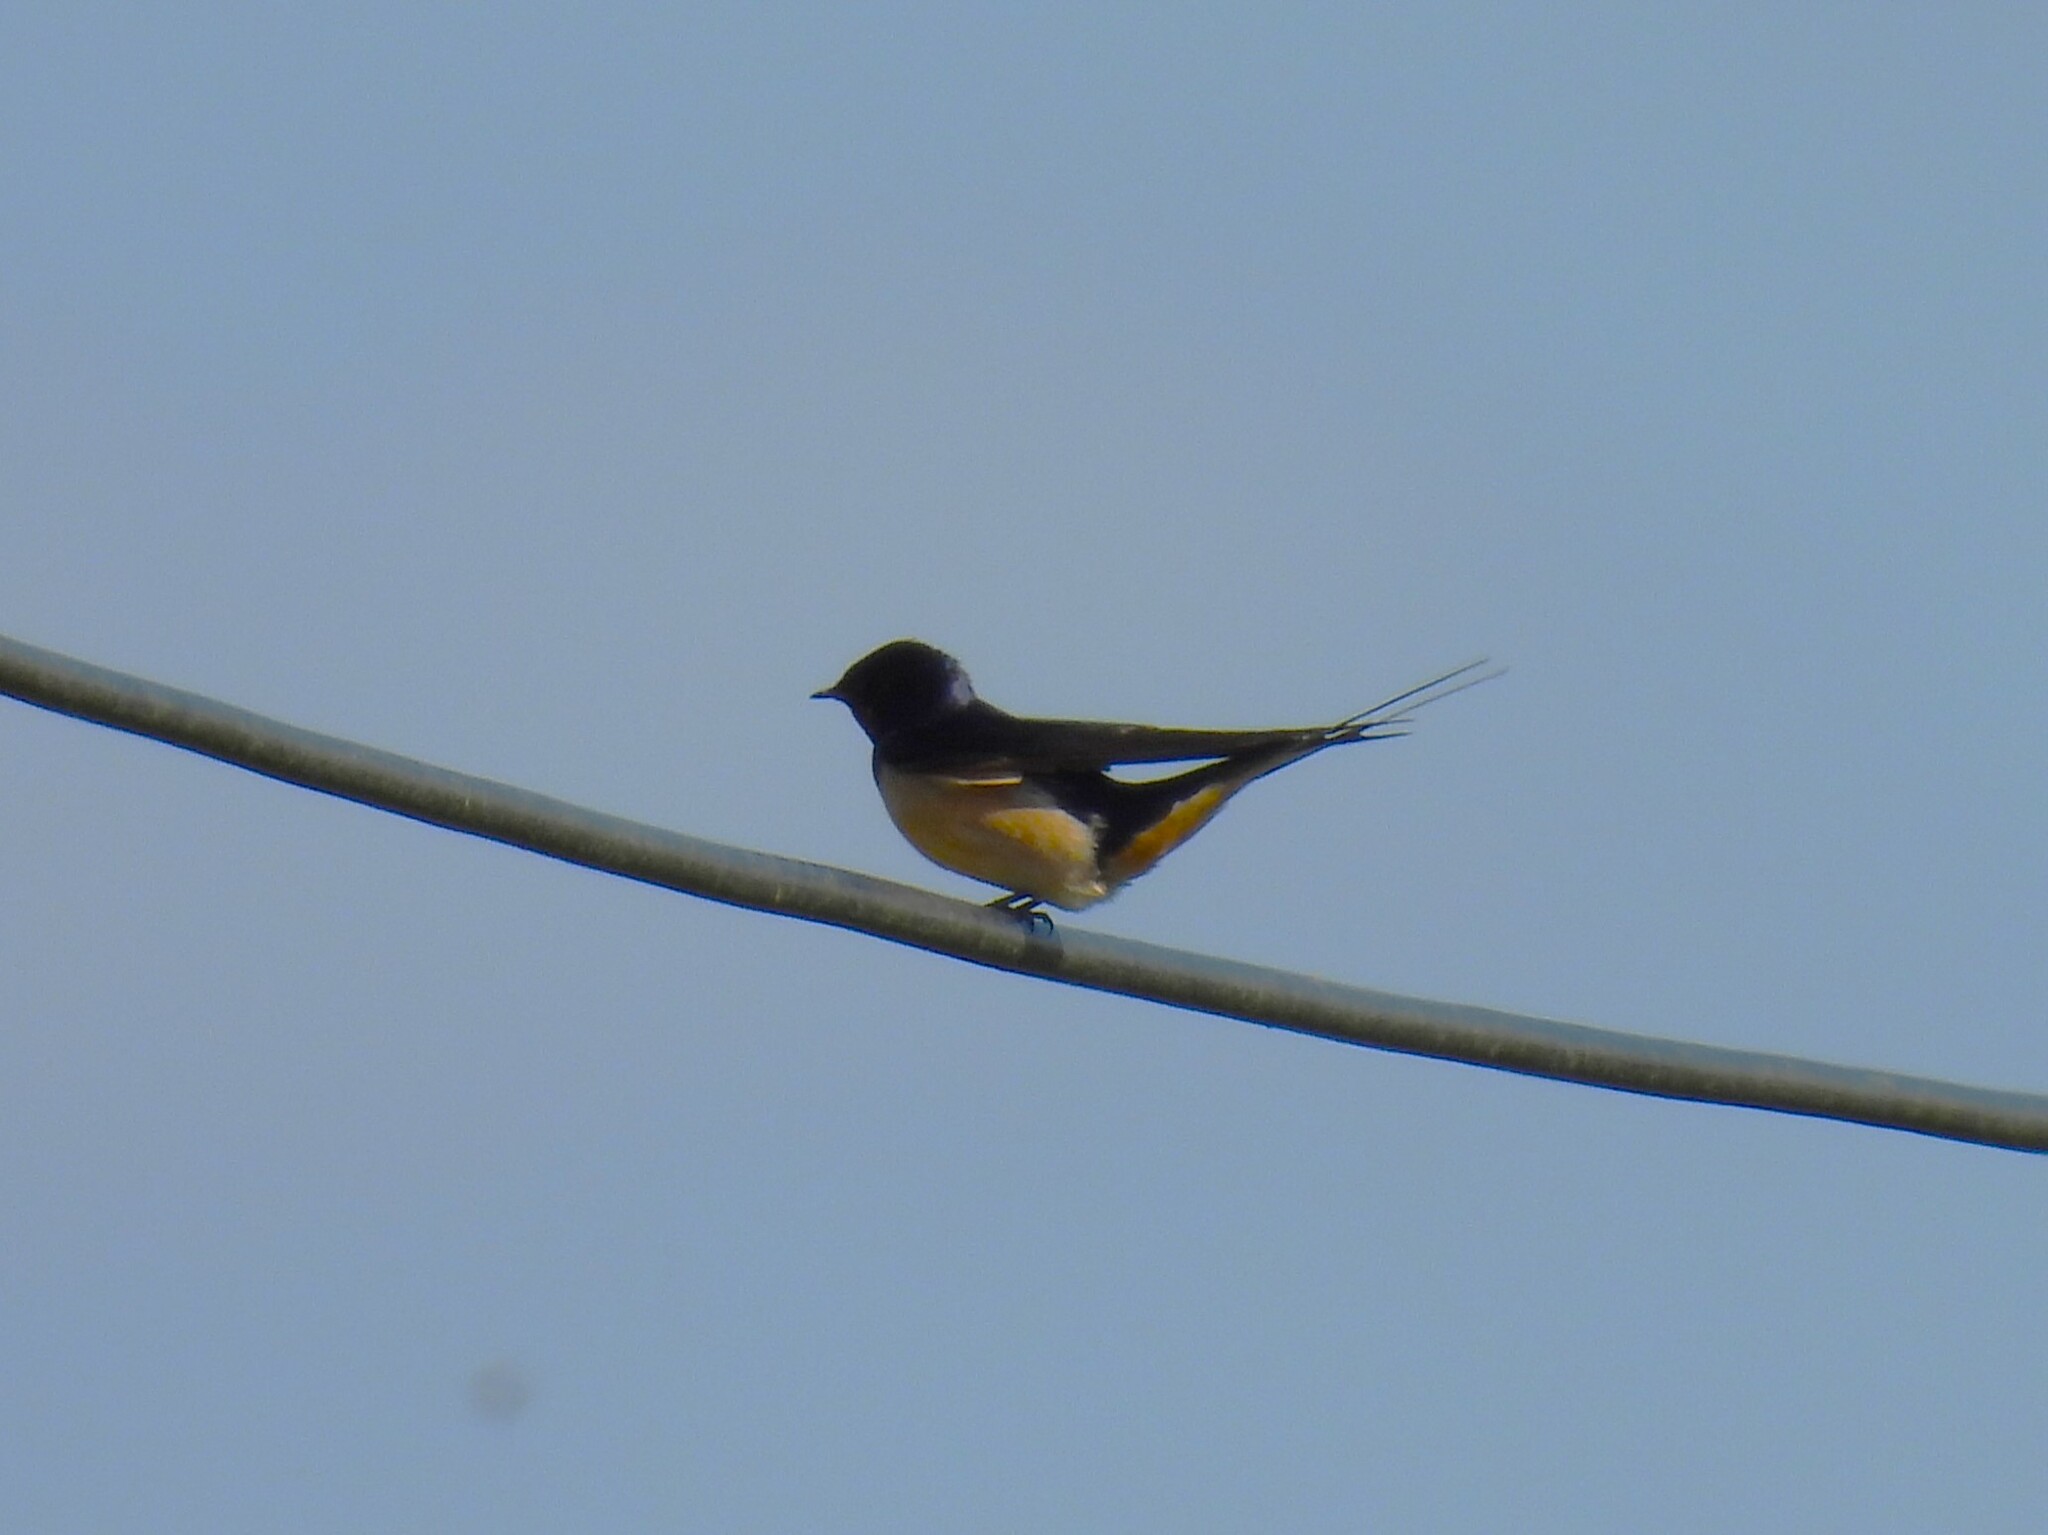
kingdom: Animalia
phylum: Chordata
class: Aves
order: Passeriformes
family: Hirundinidae
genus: Hirundo
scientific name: Hirundo rustica
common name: Barn swallow
